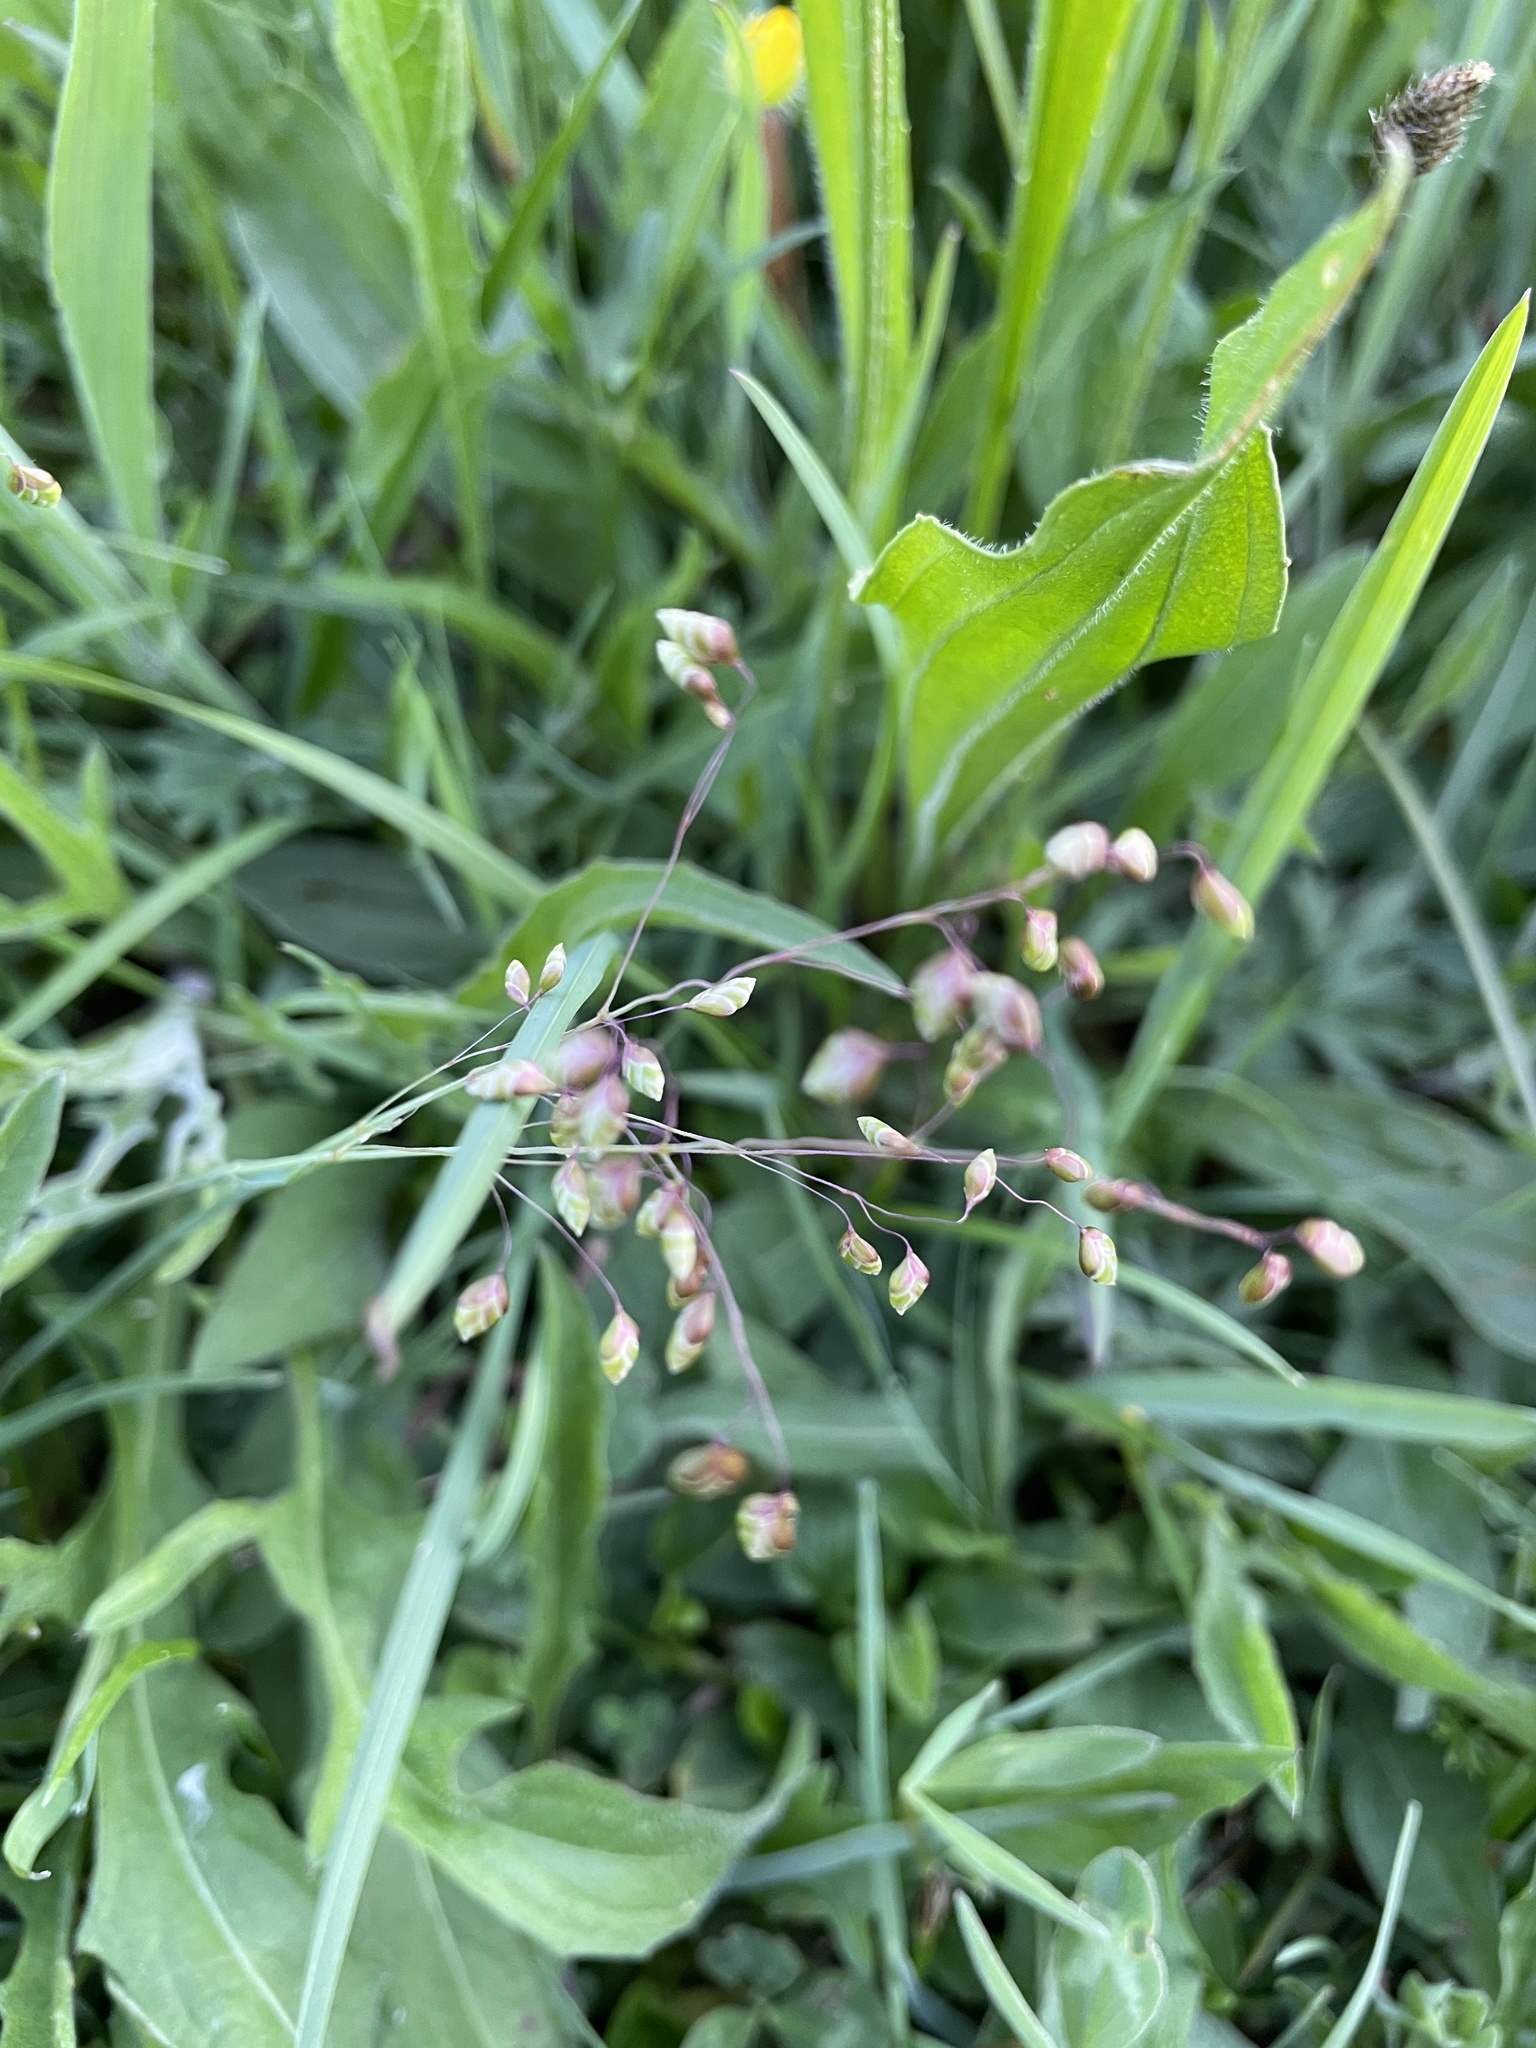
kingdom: Plantae
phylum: Tracheophyta
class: Liliopsida
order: Poales
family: Poaceae
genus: Briza
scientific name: Briza media
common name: Quaking grass
